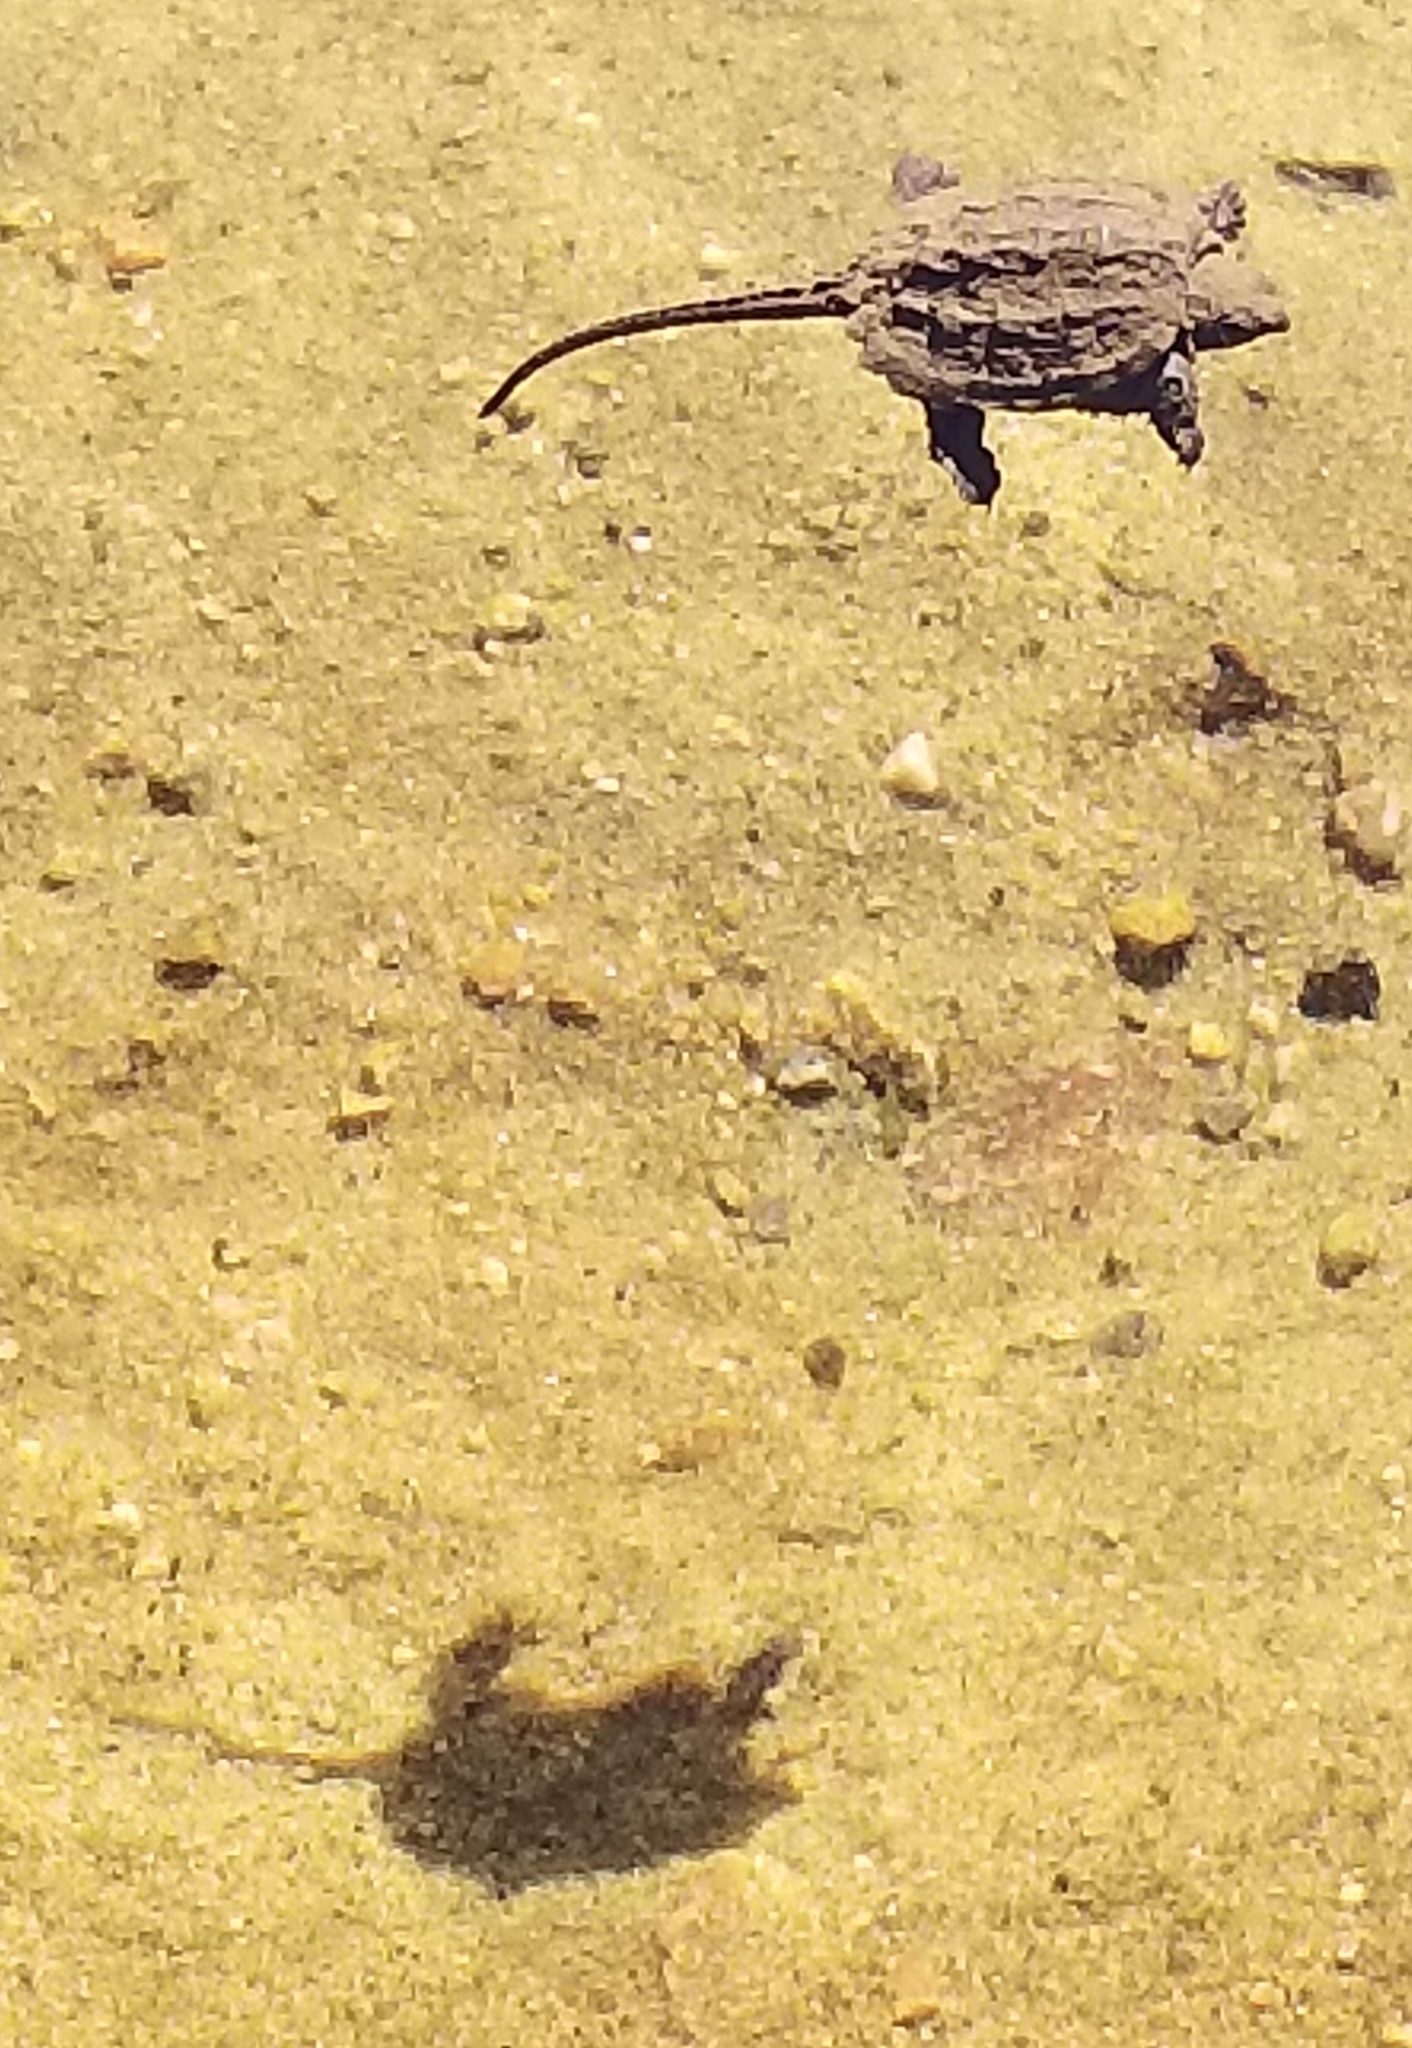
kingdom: Animalia
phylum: Chordata
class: Testudines
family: Chelydridae
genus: Chelydra
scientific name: Chelydra serpentina
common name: Common snapping turtle
